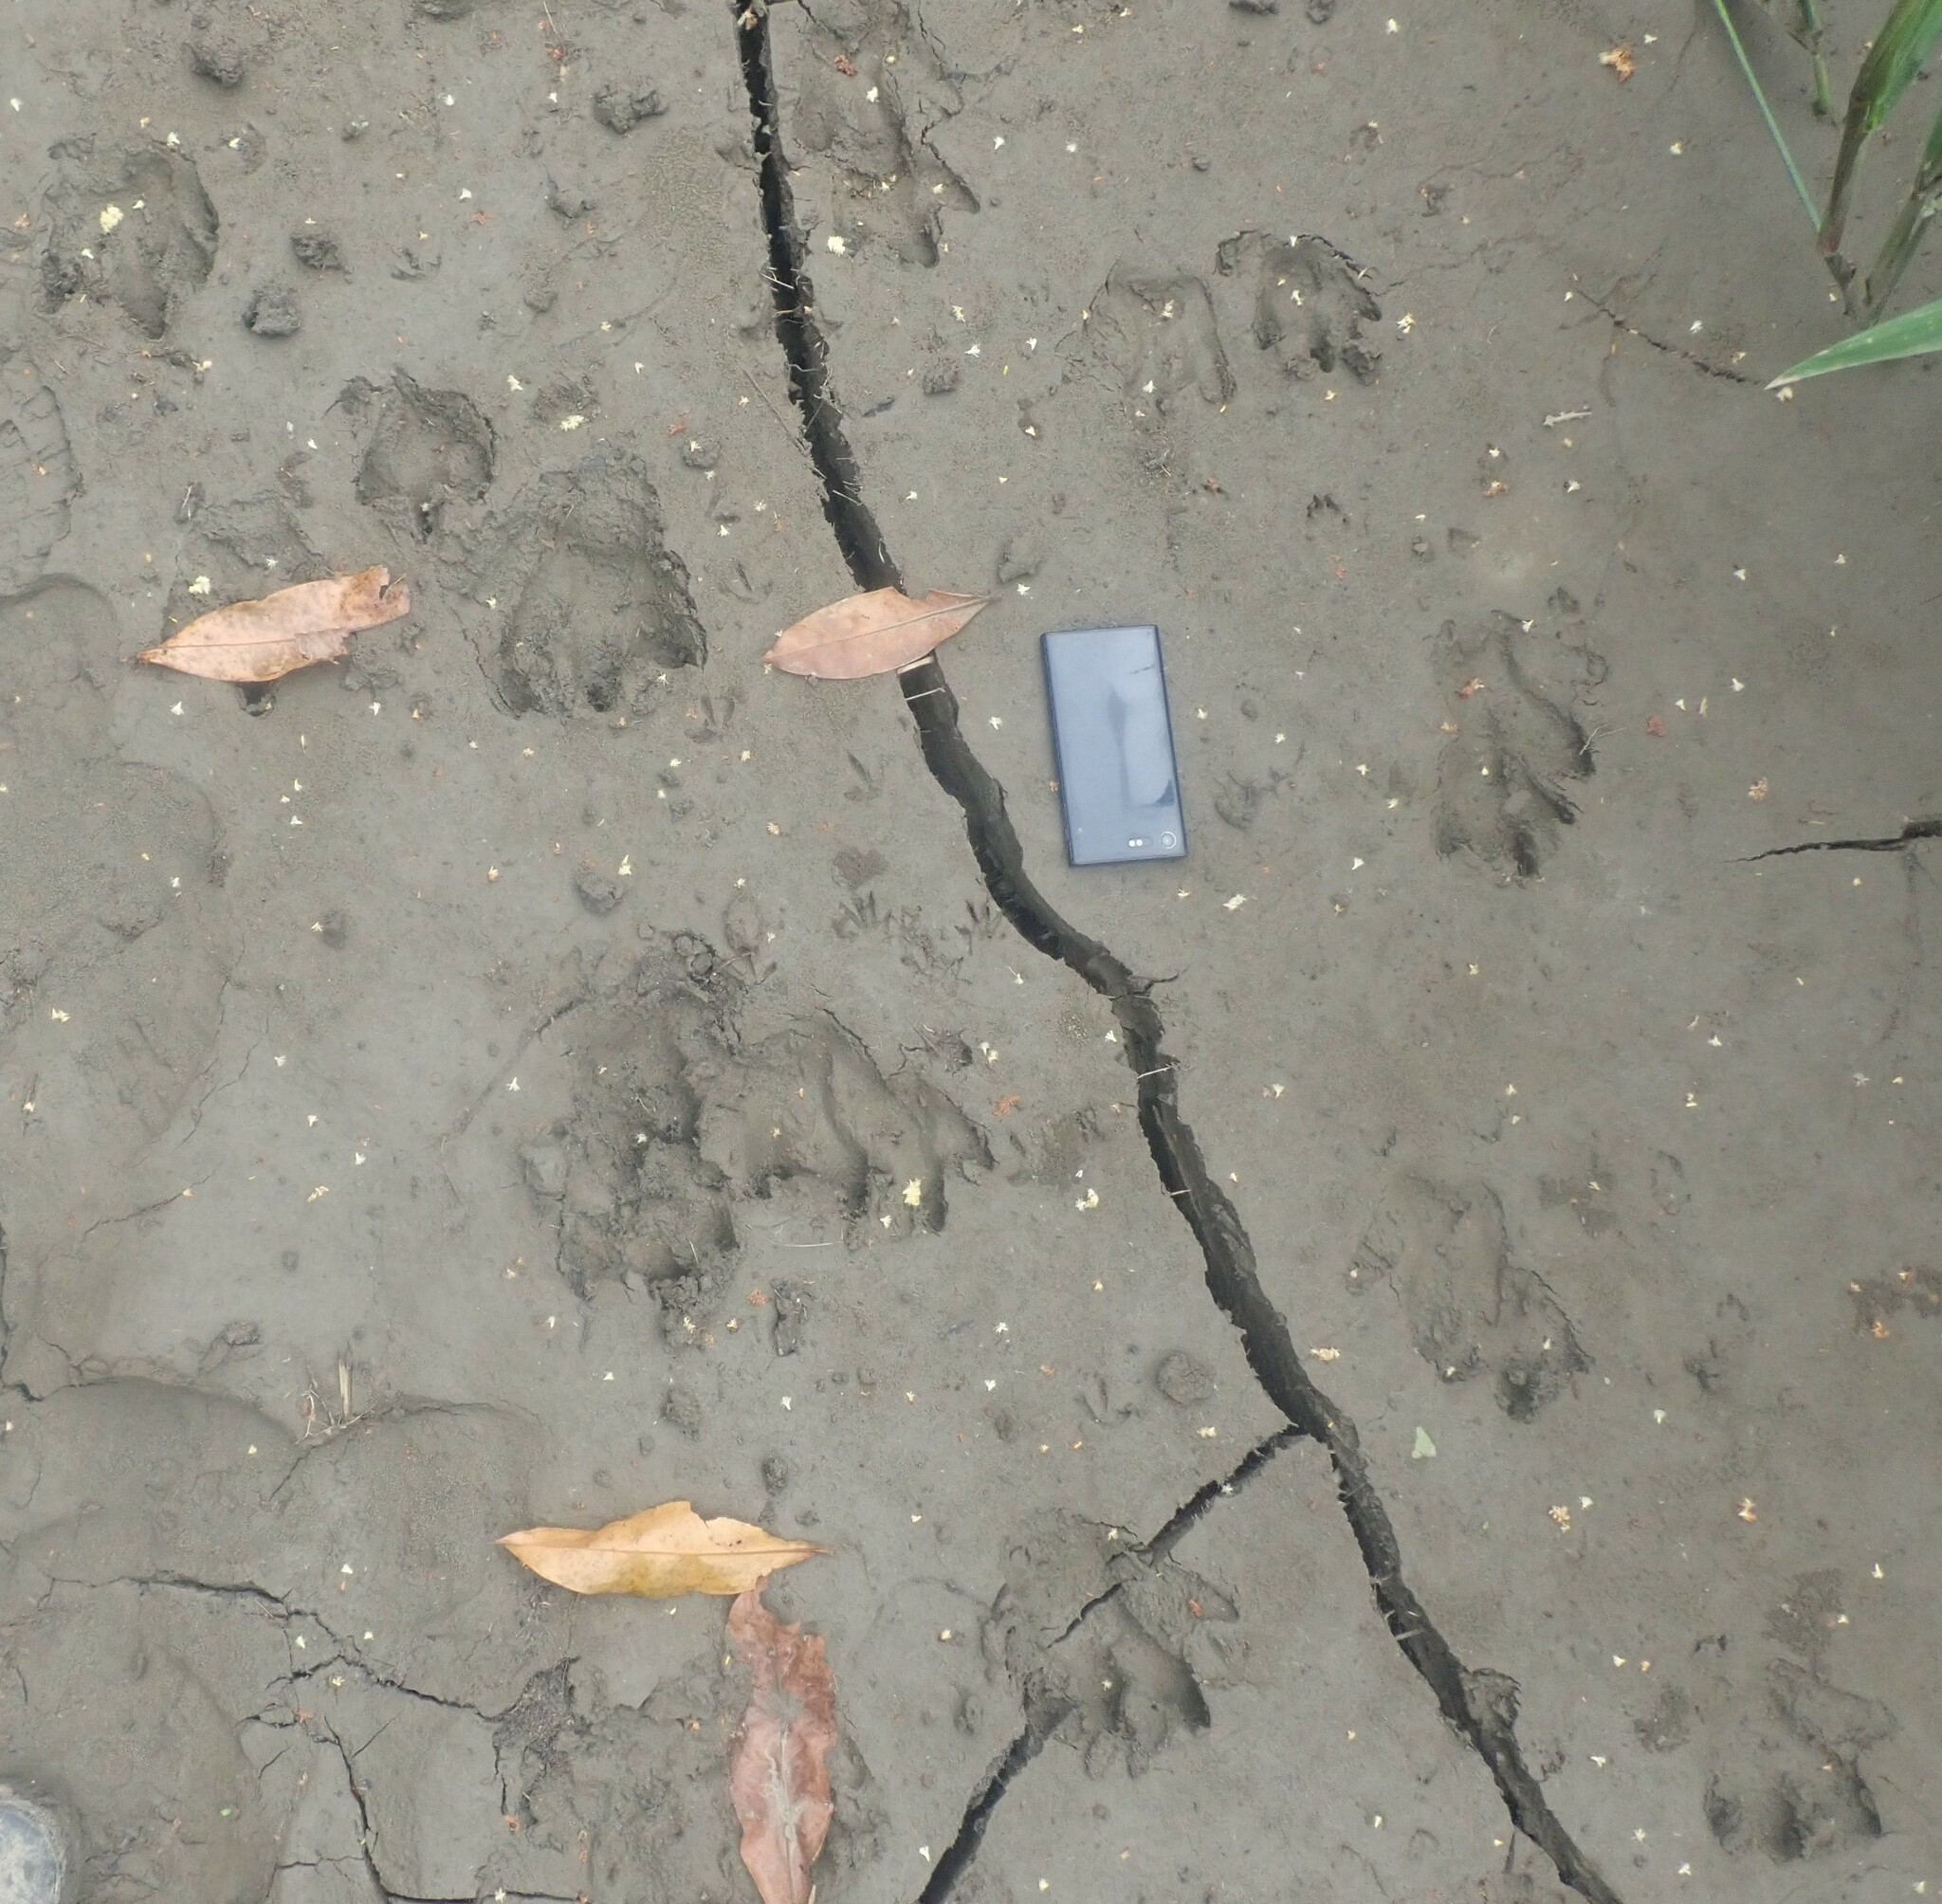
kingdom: Animalia
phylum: Chordata
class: Mammalia
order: Rodentia
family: Caviidae
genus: Hydrochoerus
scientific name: Hydrochoerus hydrochaeris
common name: Capybara
